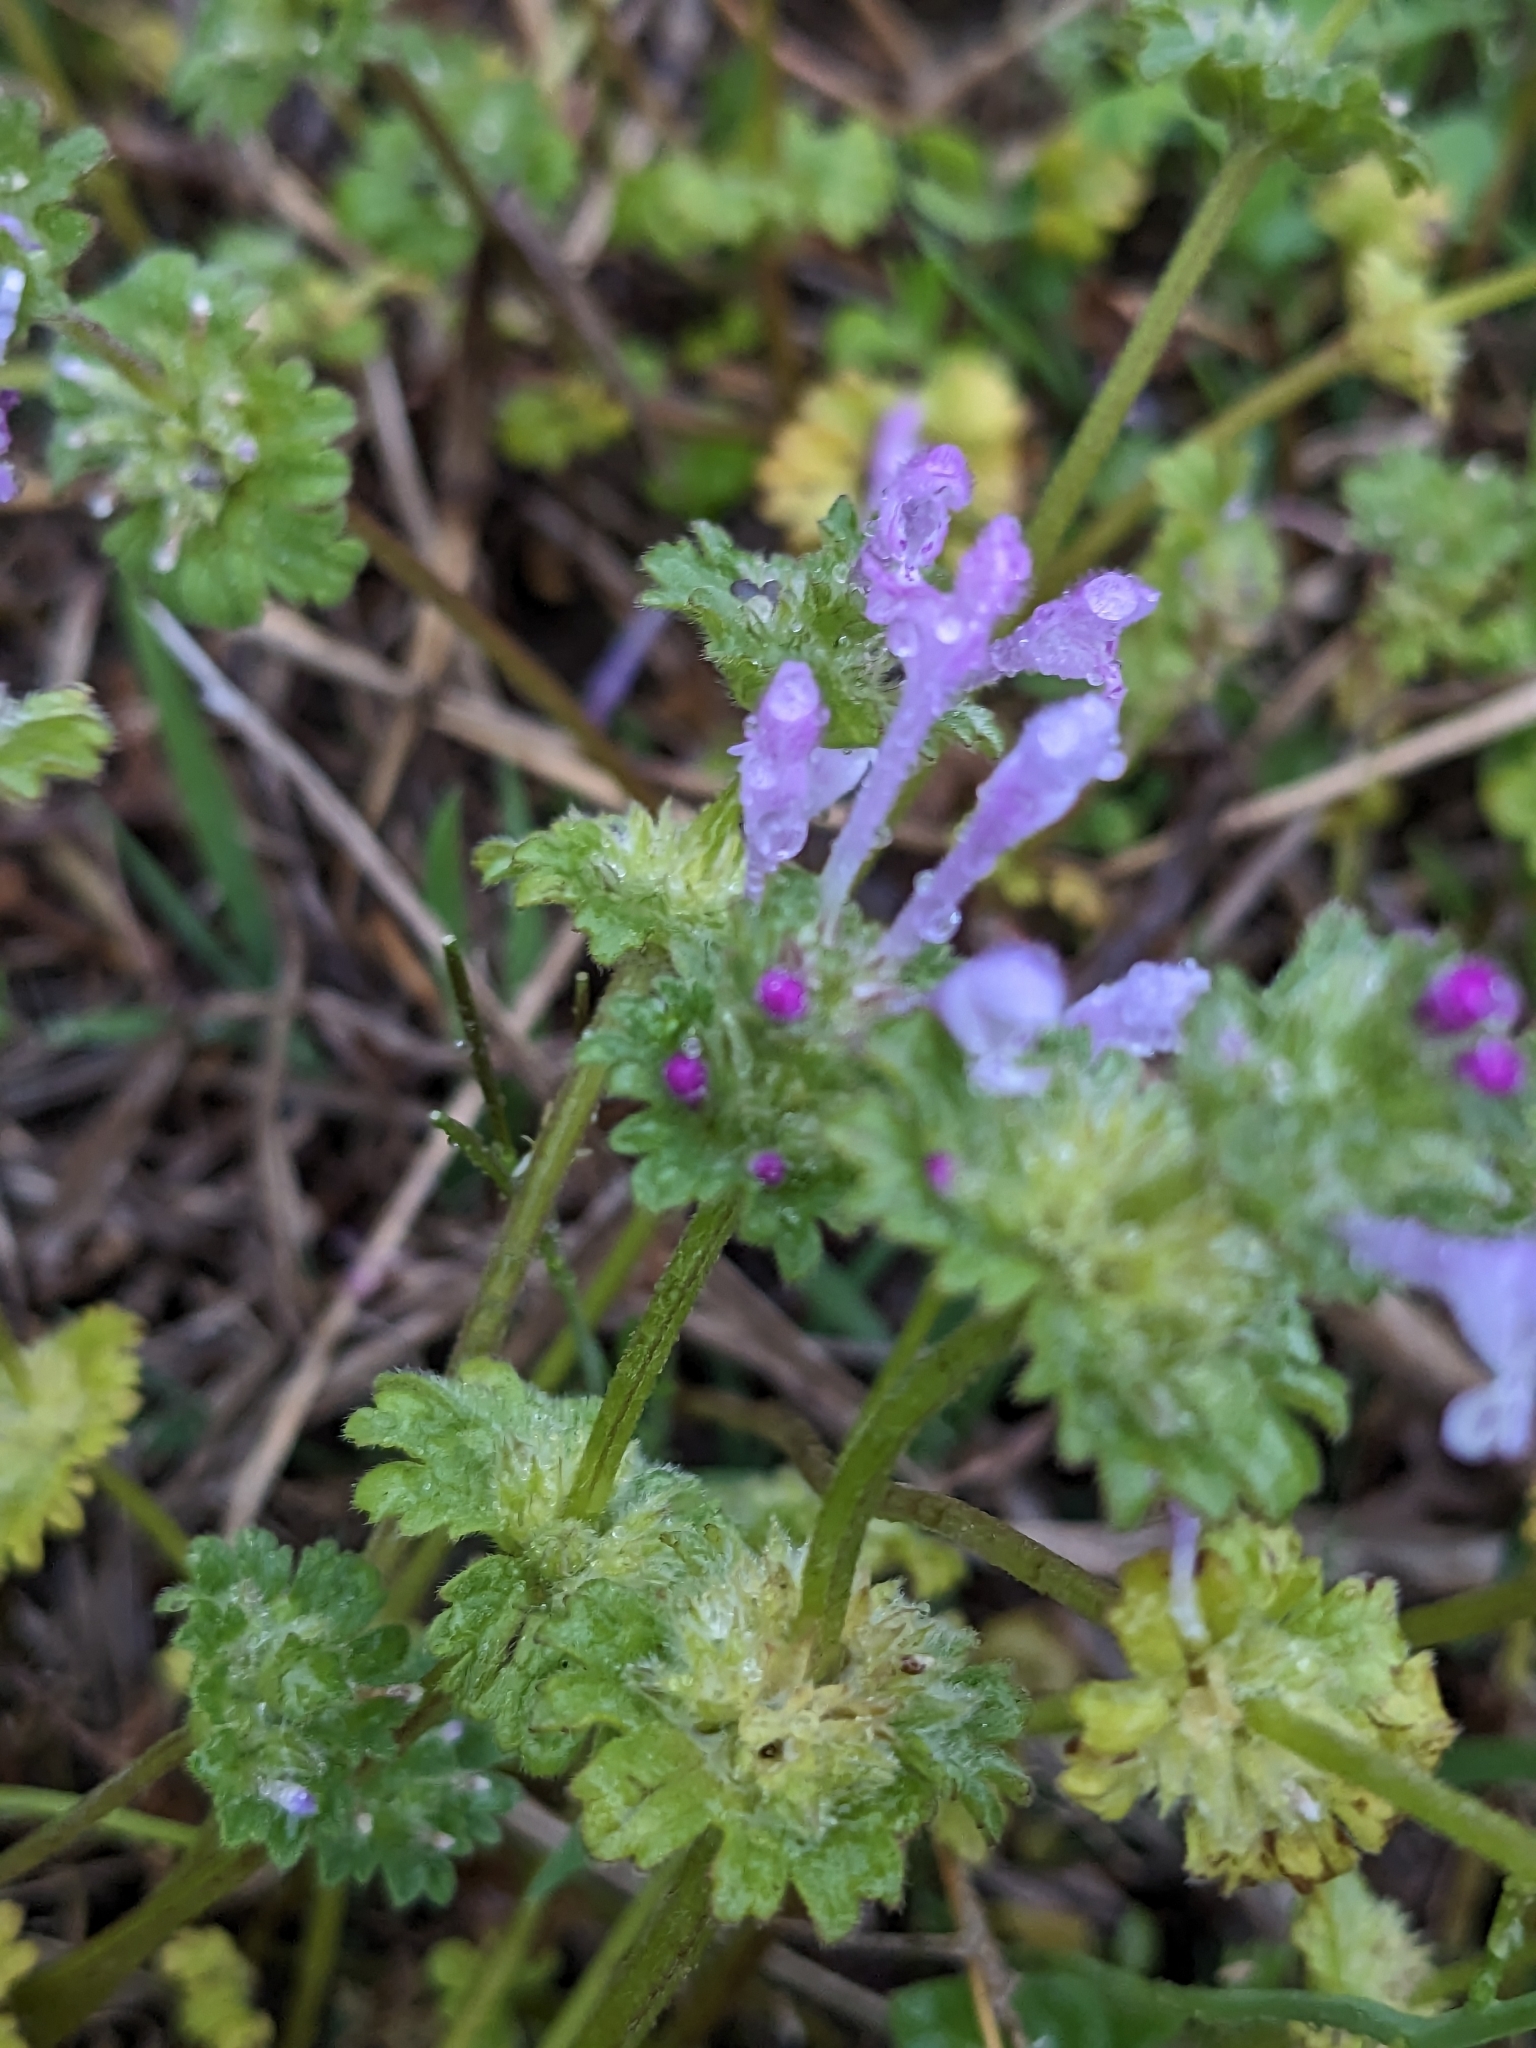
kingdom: Plantae
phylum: Tracheophyta
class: Magnoliopsida
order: Lamiales
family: Lamiaceae
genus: Lamium
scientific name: Lamium amplexicaule
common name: Henbit dead-nettle
